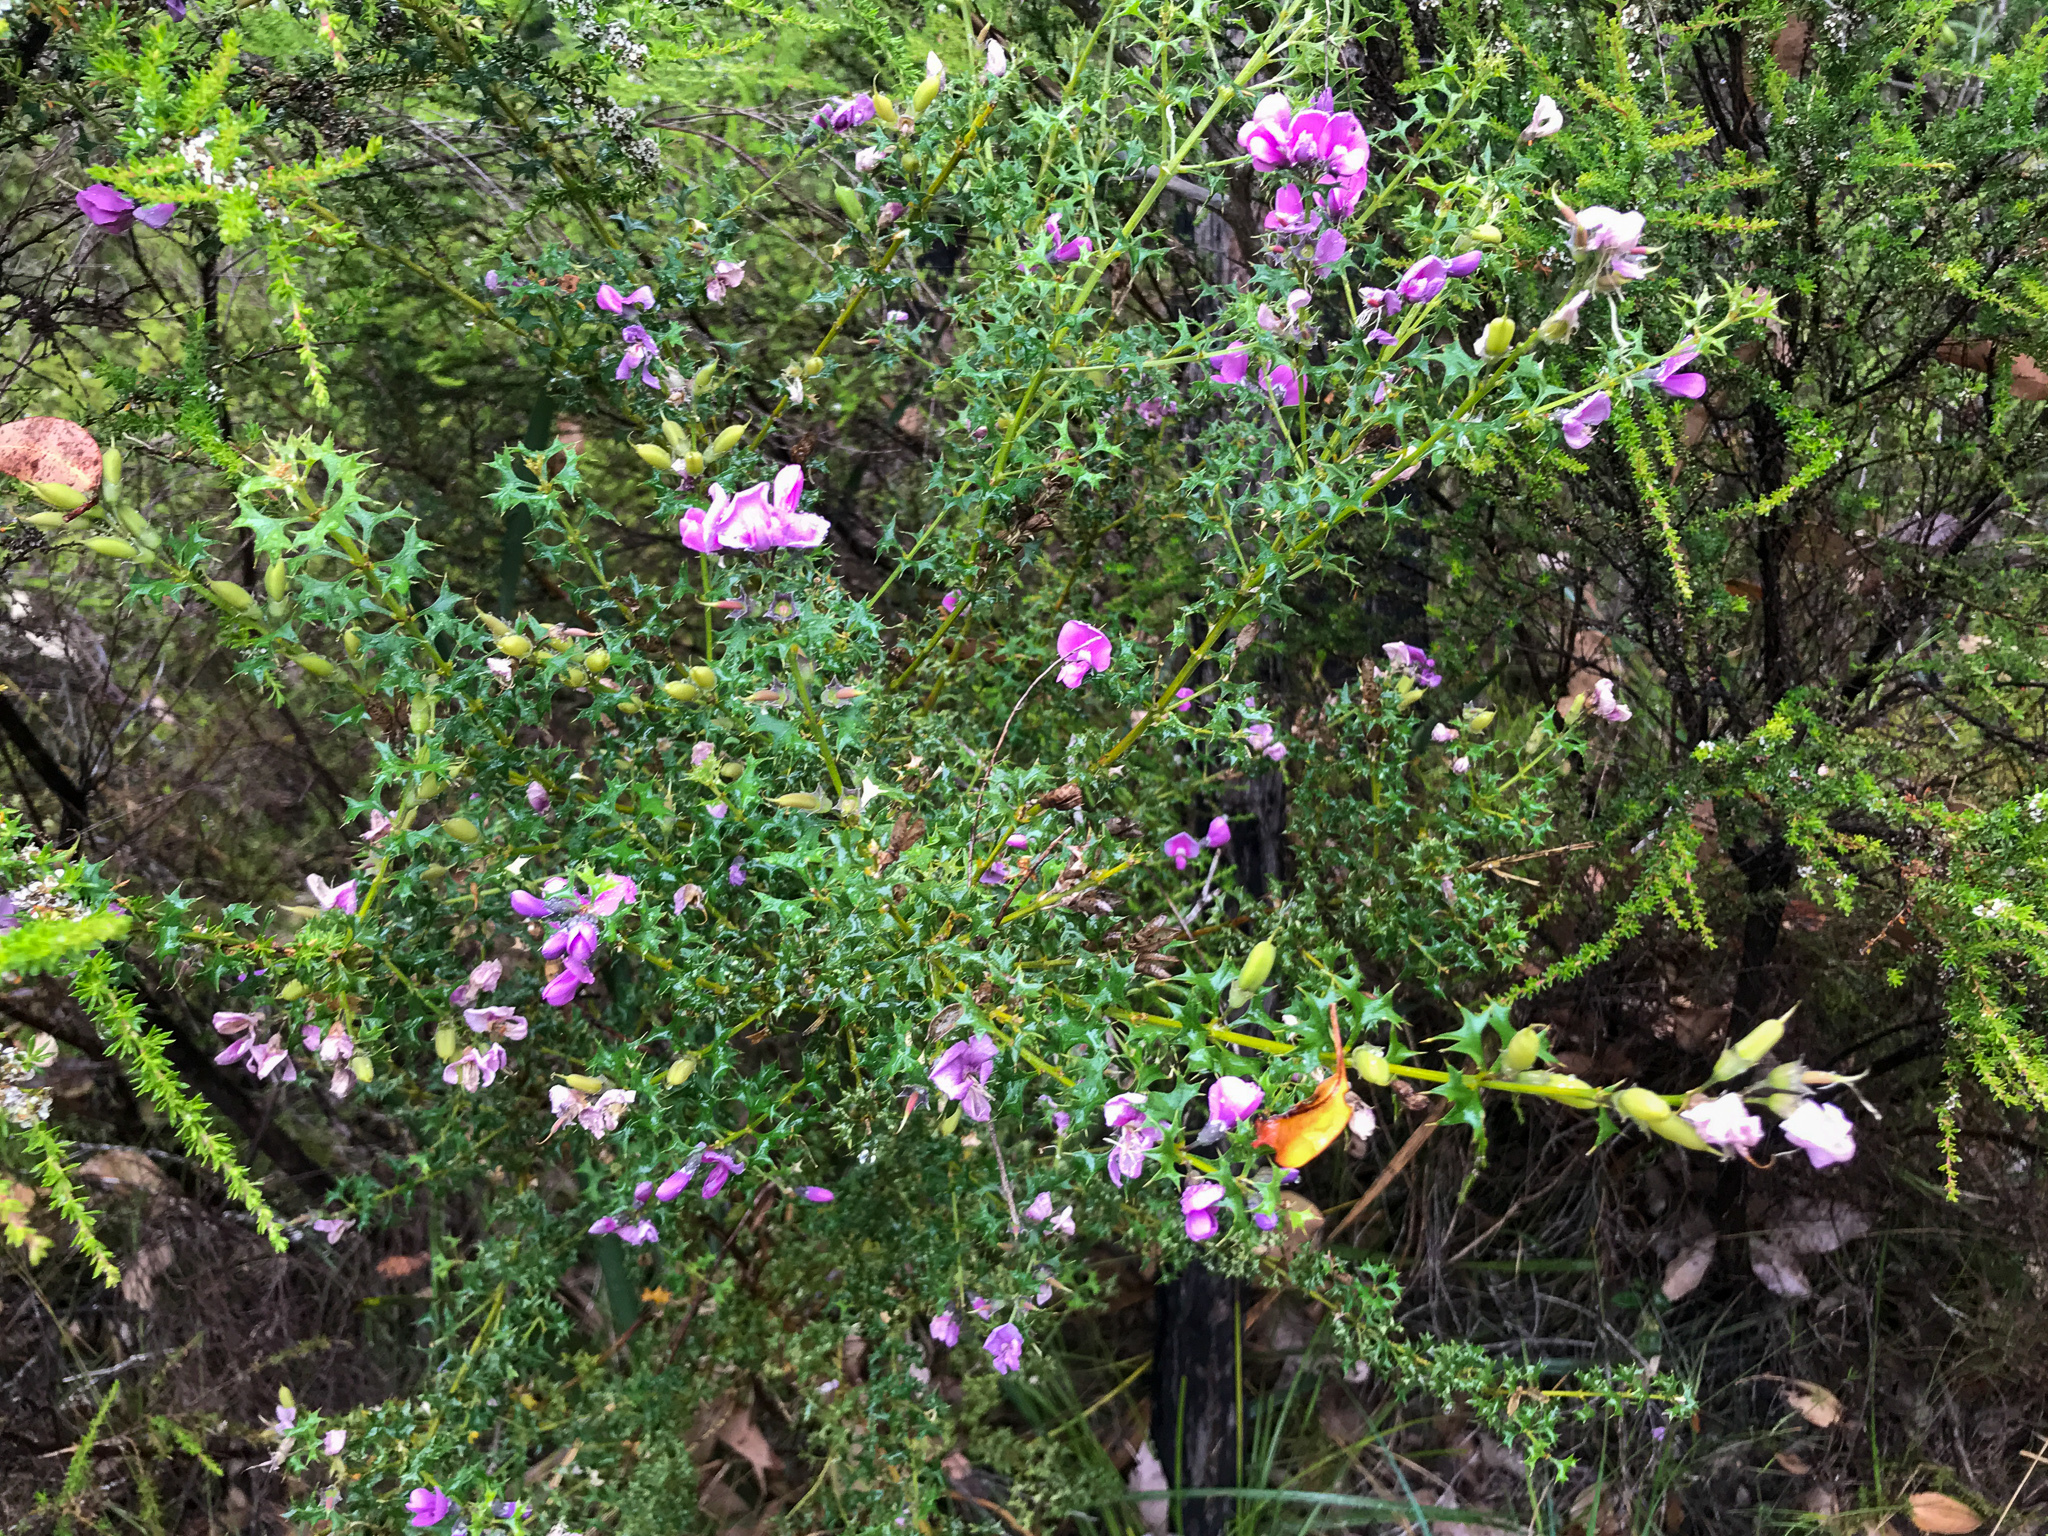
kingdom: Plantae
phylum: Tracheophyta
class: Magnoliopsida
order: Fabales
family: Fabaceae
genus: Mirbelia
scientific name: Mirbelia dilatata
